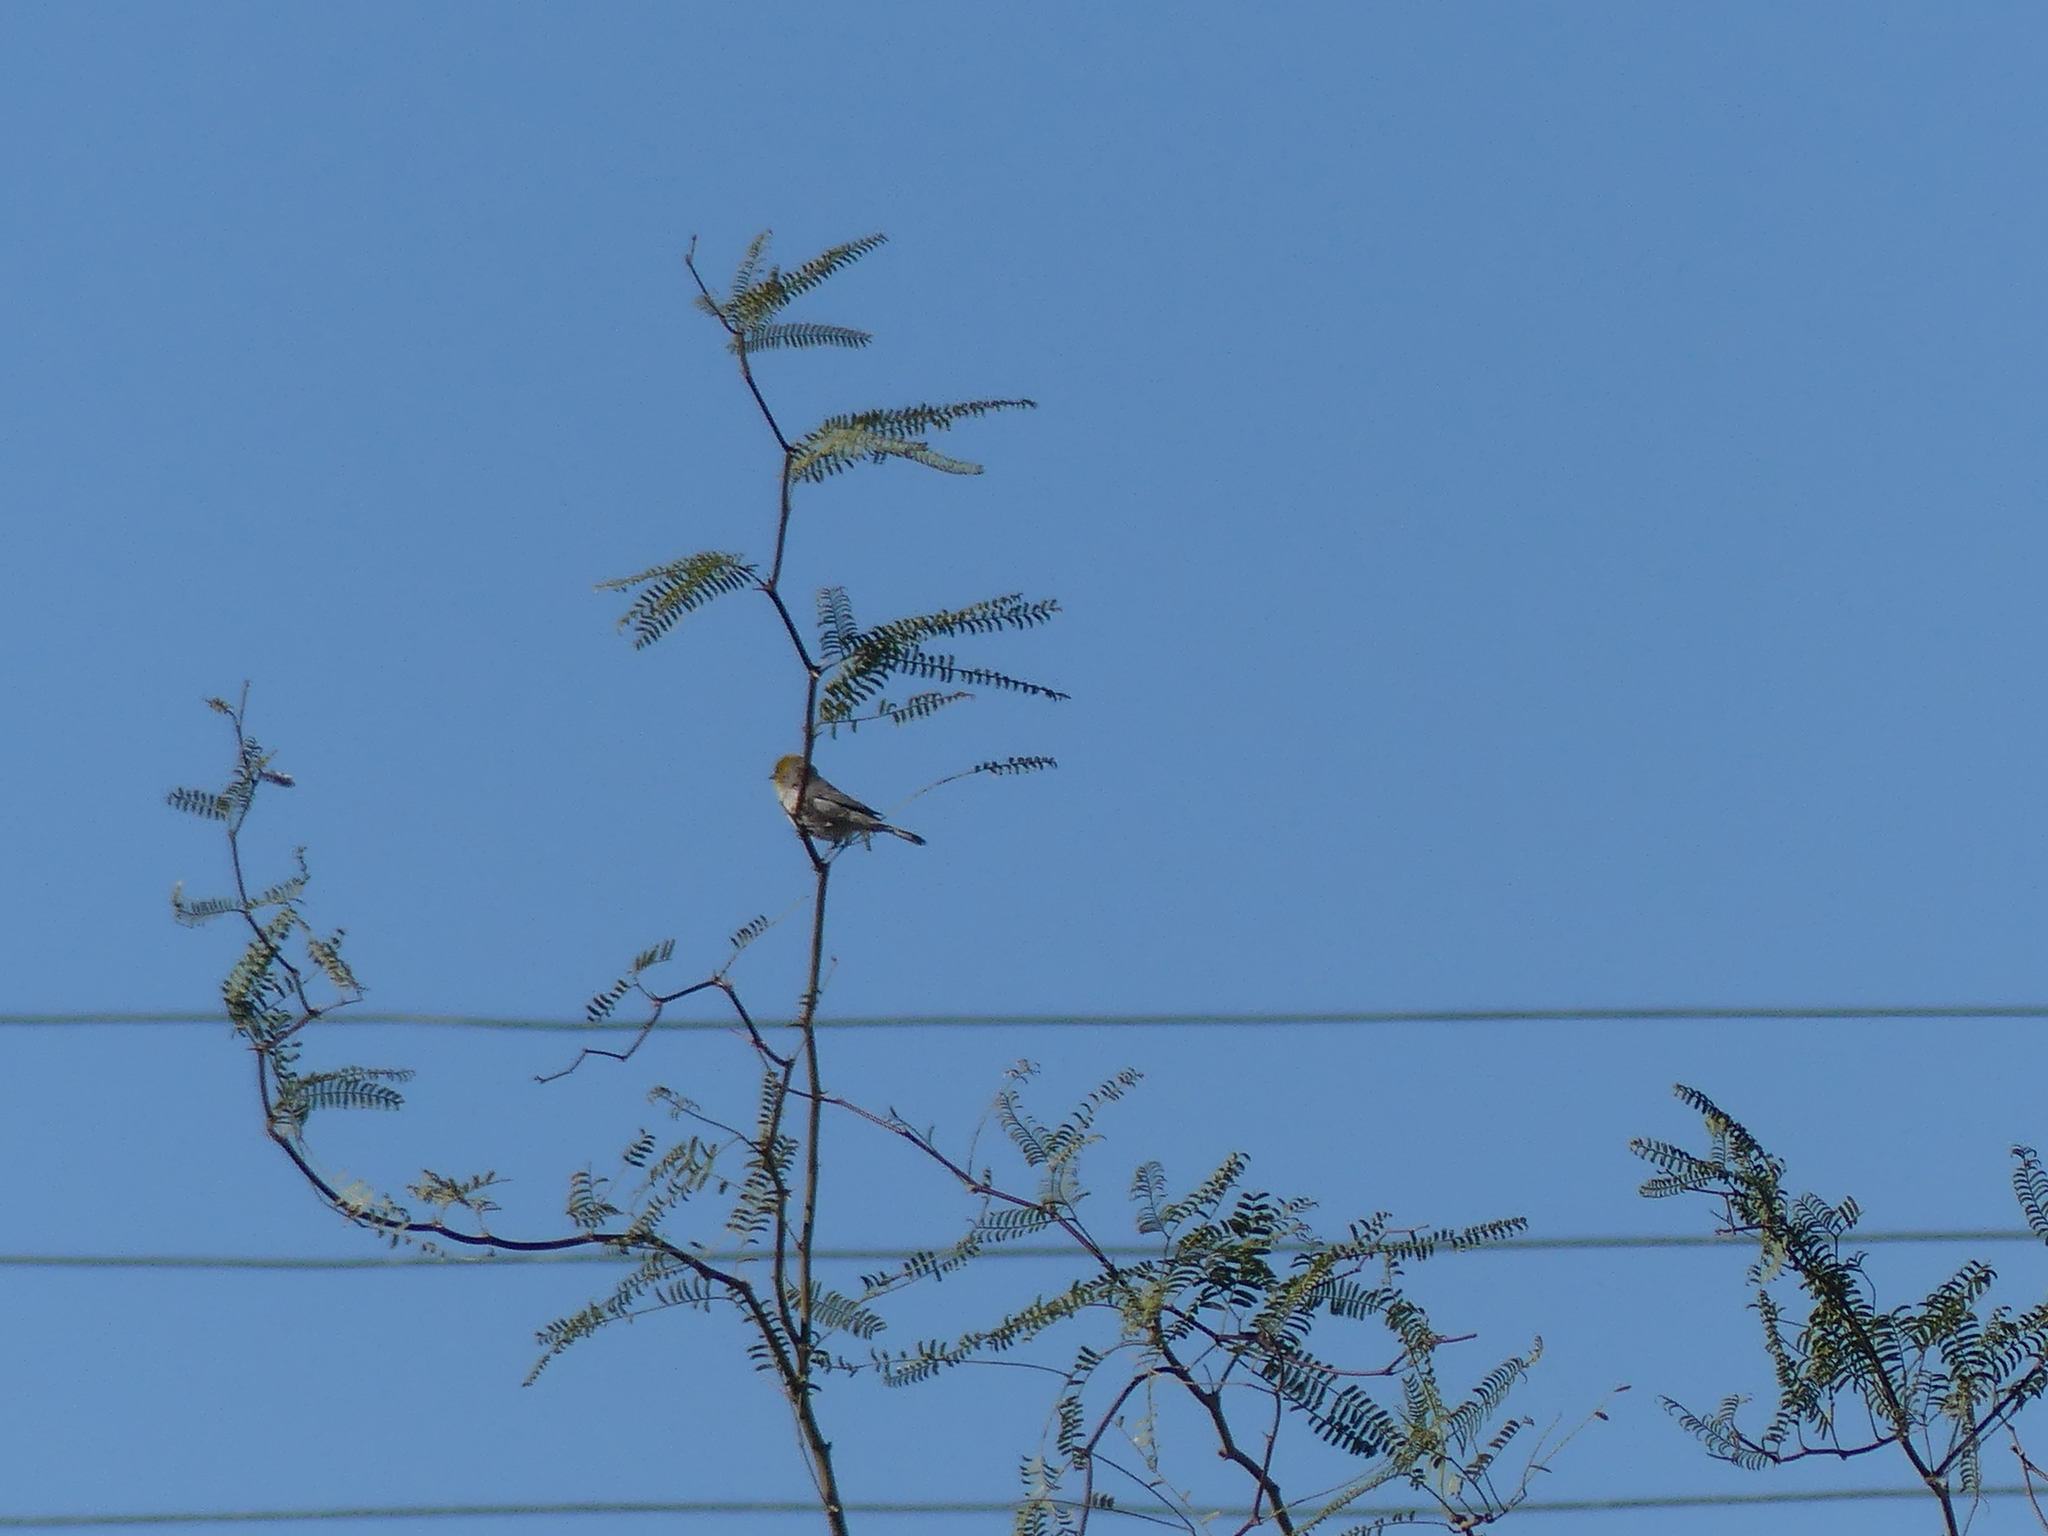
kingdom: Animalia
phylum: Chordata
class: Aves
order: Passeriformes
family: Remizidae
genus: Auriparus
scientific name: Auriparus flaviceps
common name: Verdin
